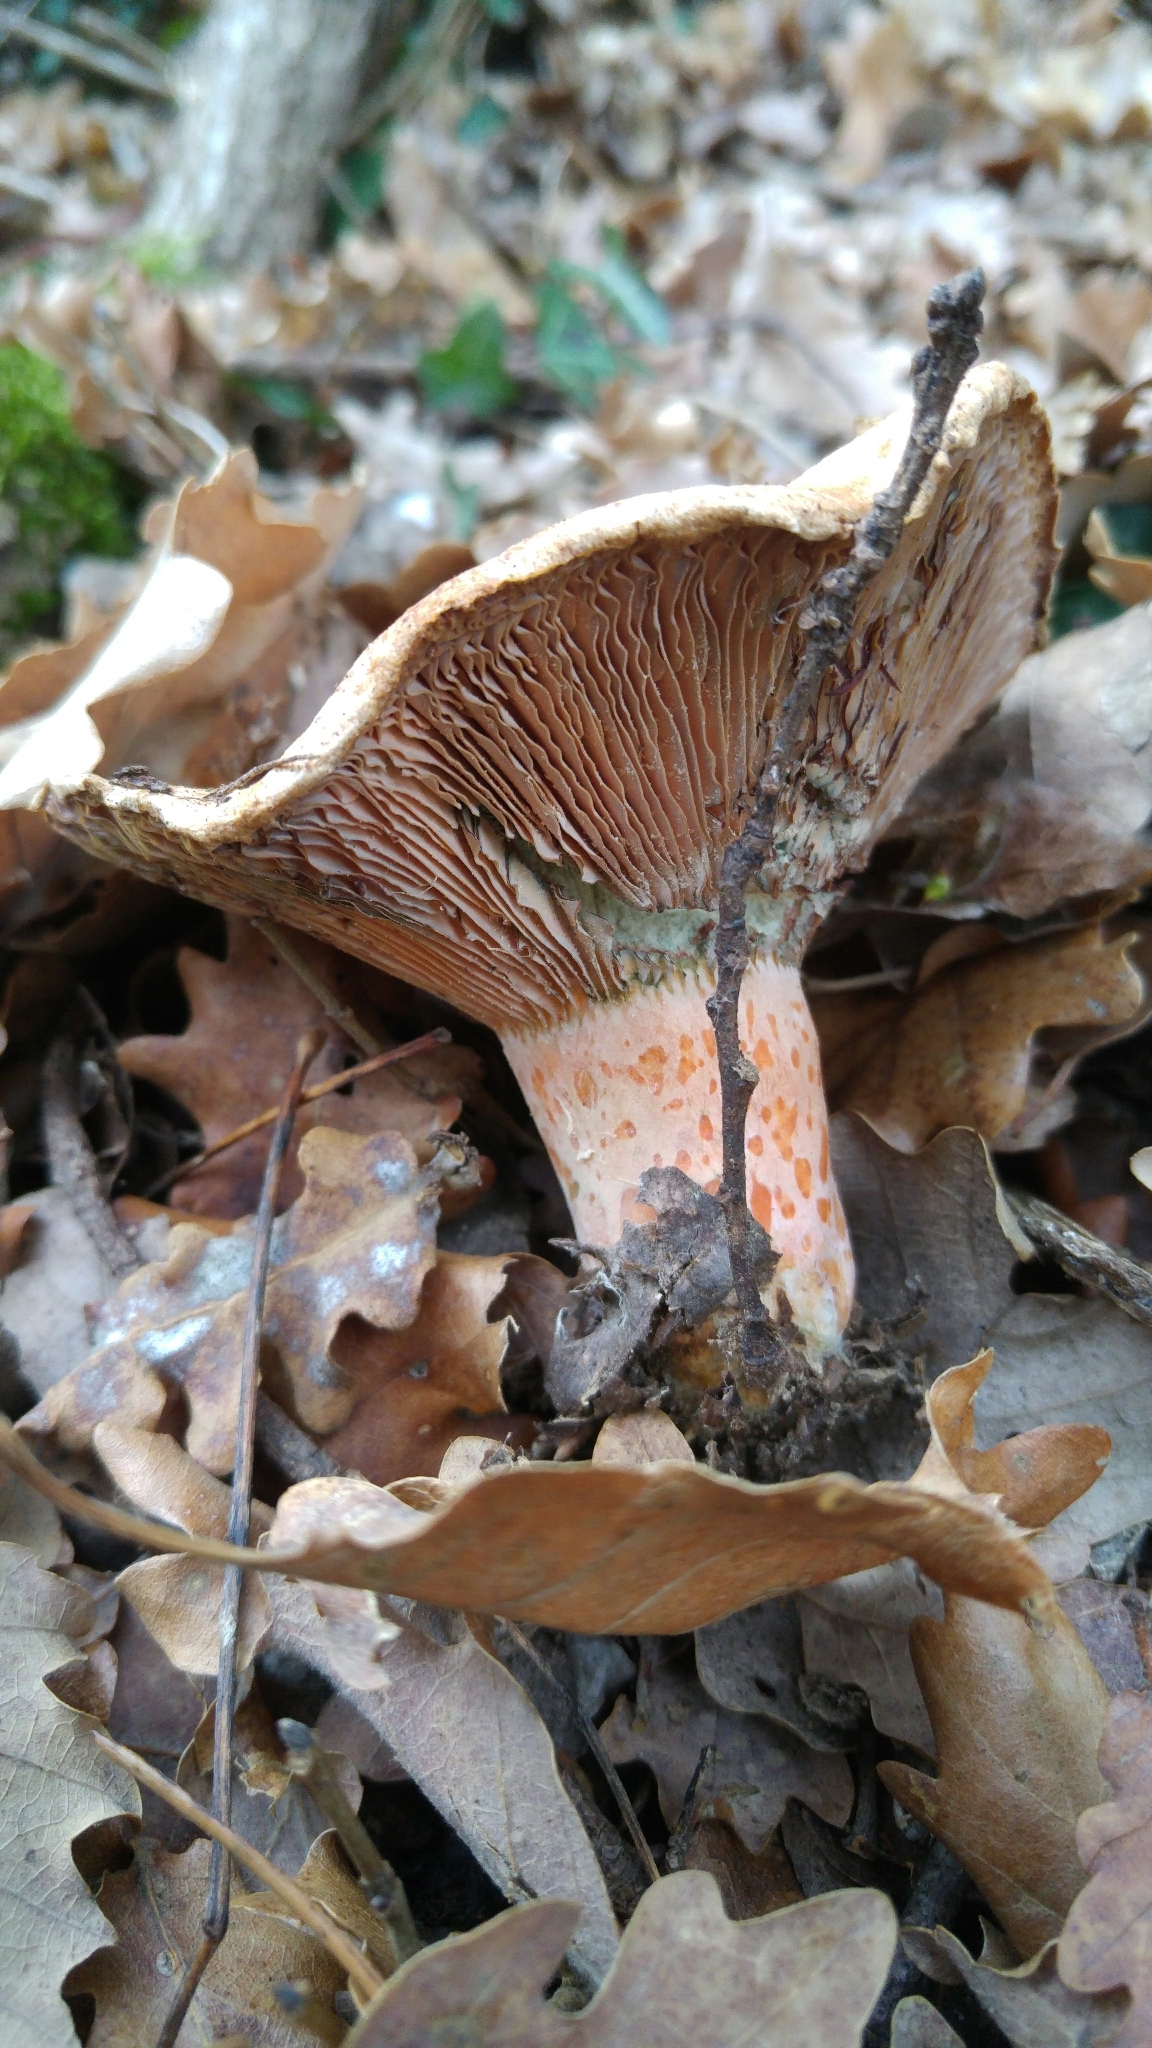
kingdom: Fungi
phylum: Basidiomycota
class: Agaricomycetes
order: Russulales
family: Russulaceae
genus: Lactarius
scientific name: Lactarius deliciosus
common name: Saffron milk-cap
